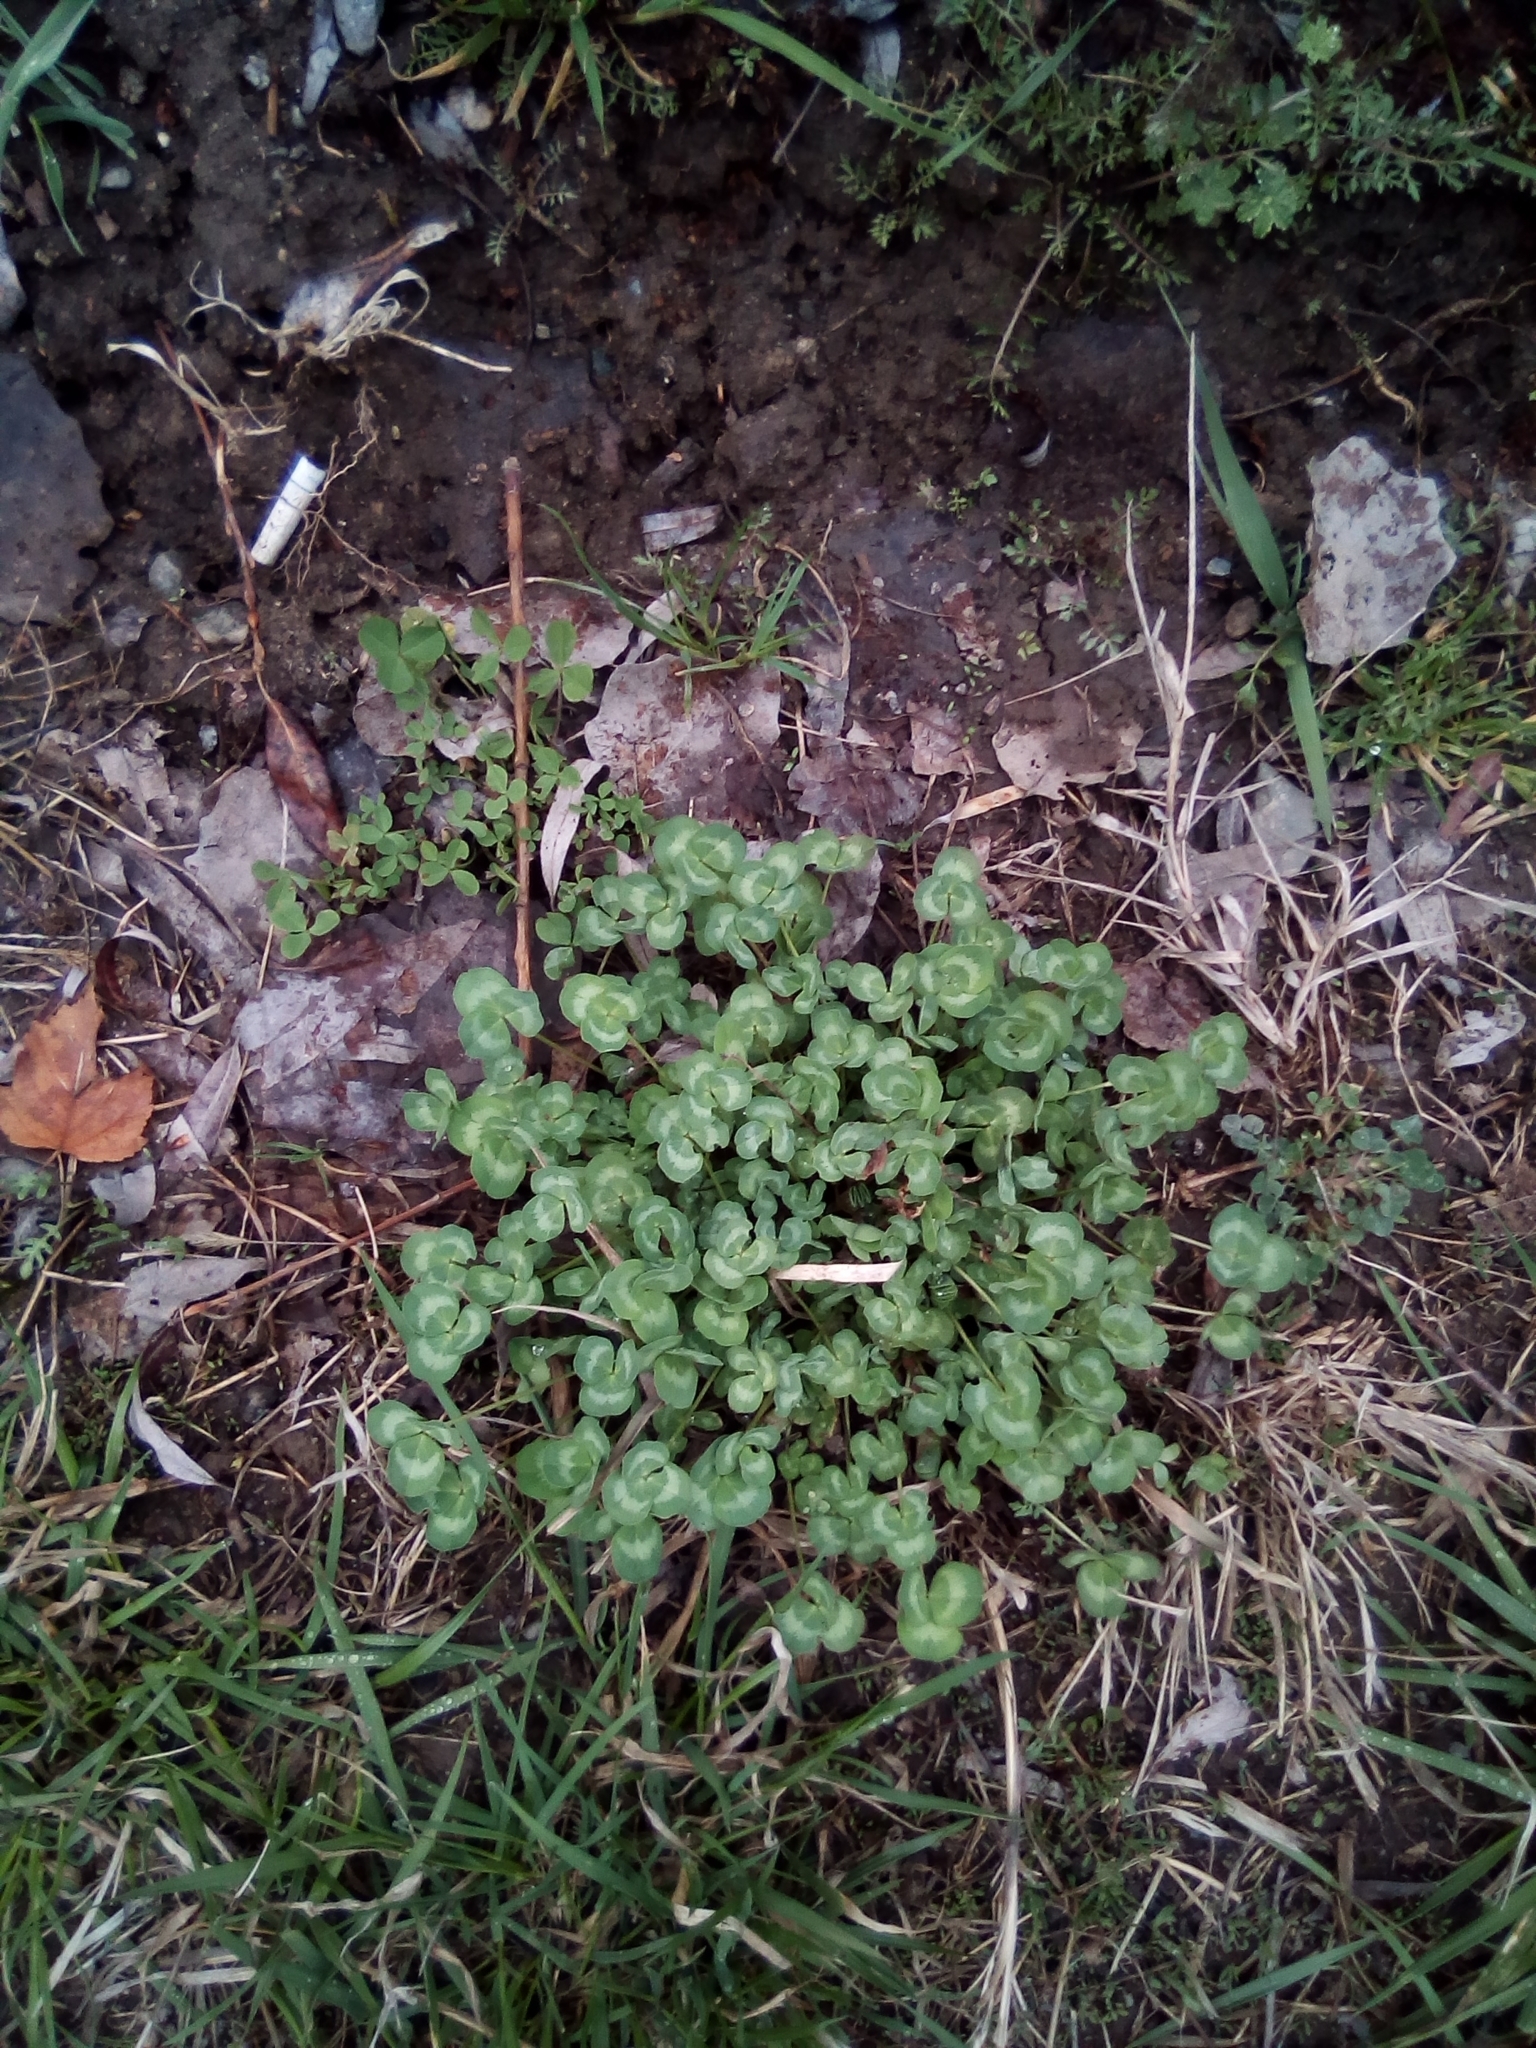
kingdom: Plantae
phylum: Tracheophyta
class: Magnoliopsida
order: Fabales
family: Fabaceae
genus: Trifolium
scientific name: Trifolium pratense
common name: Red clover
